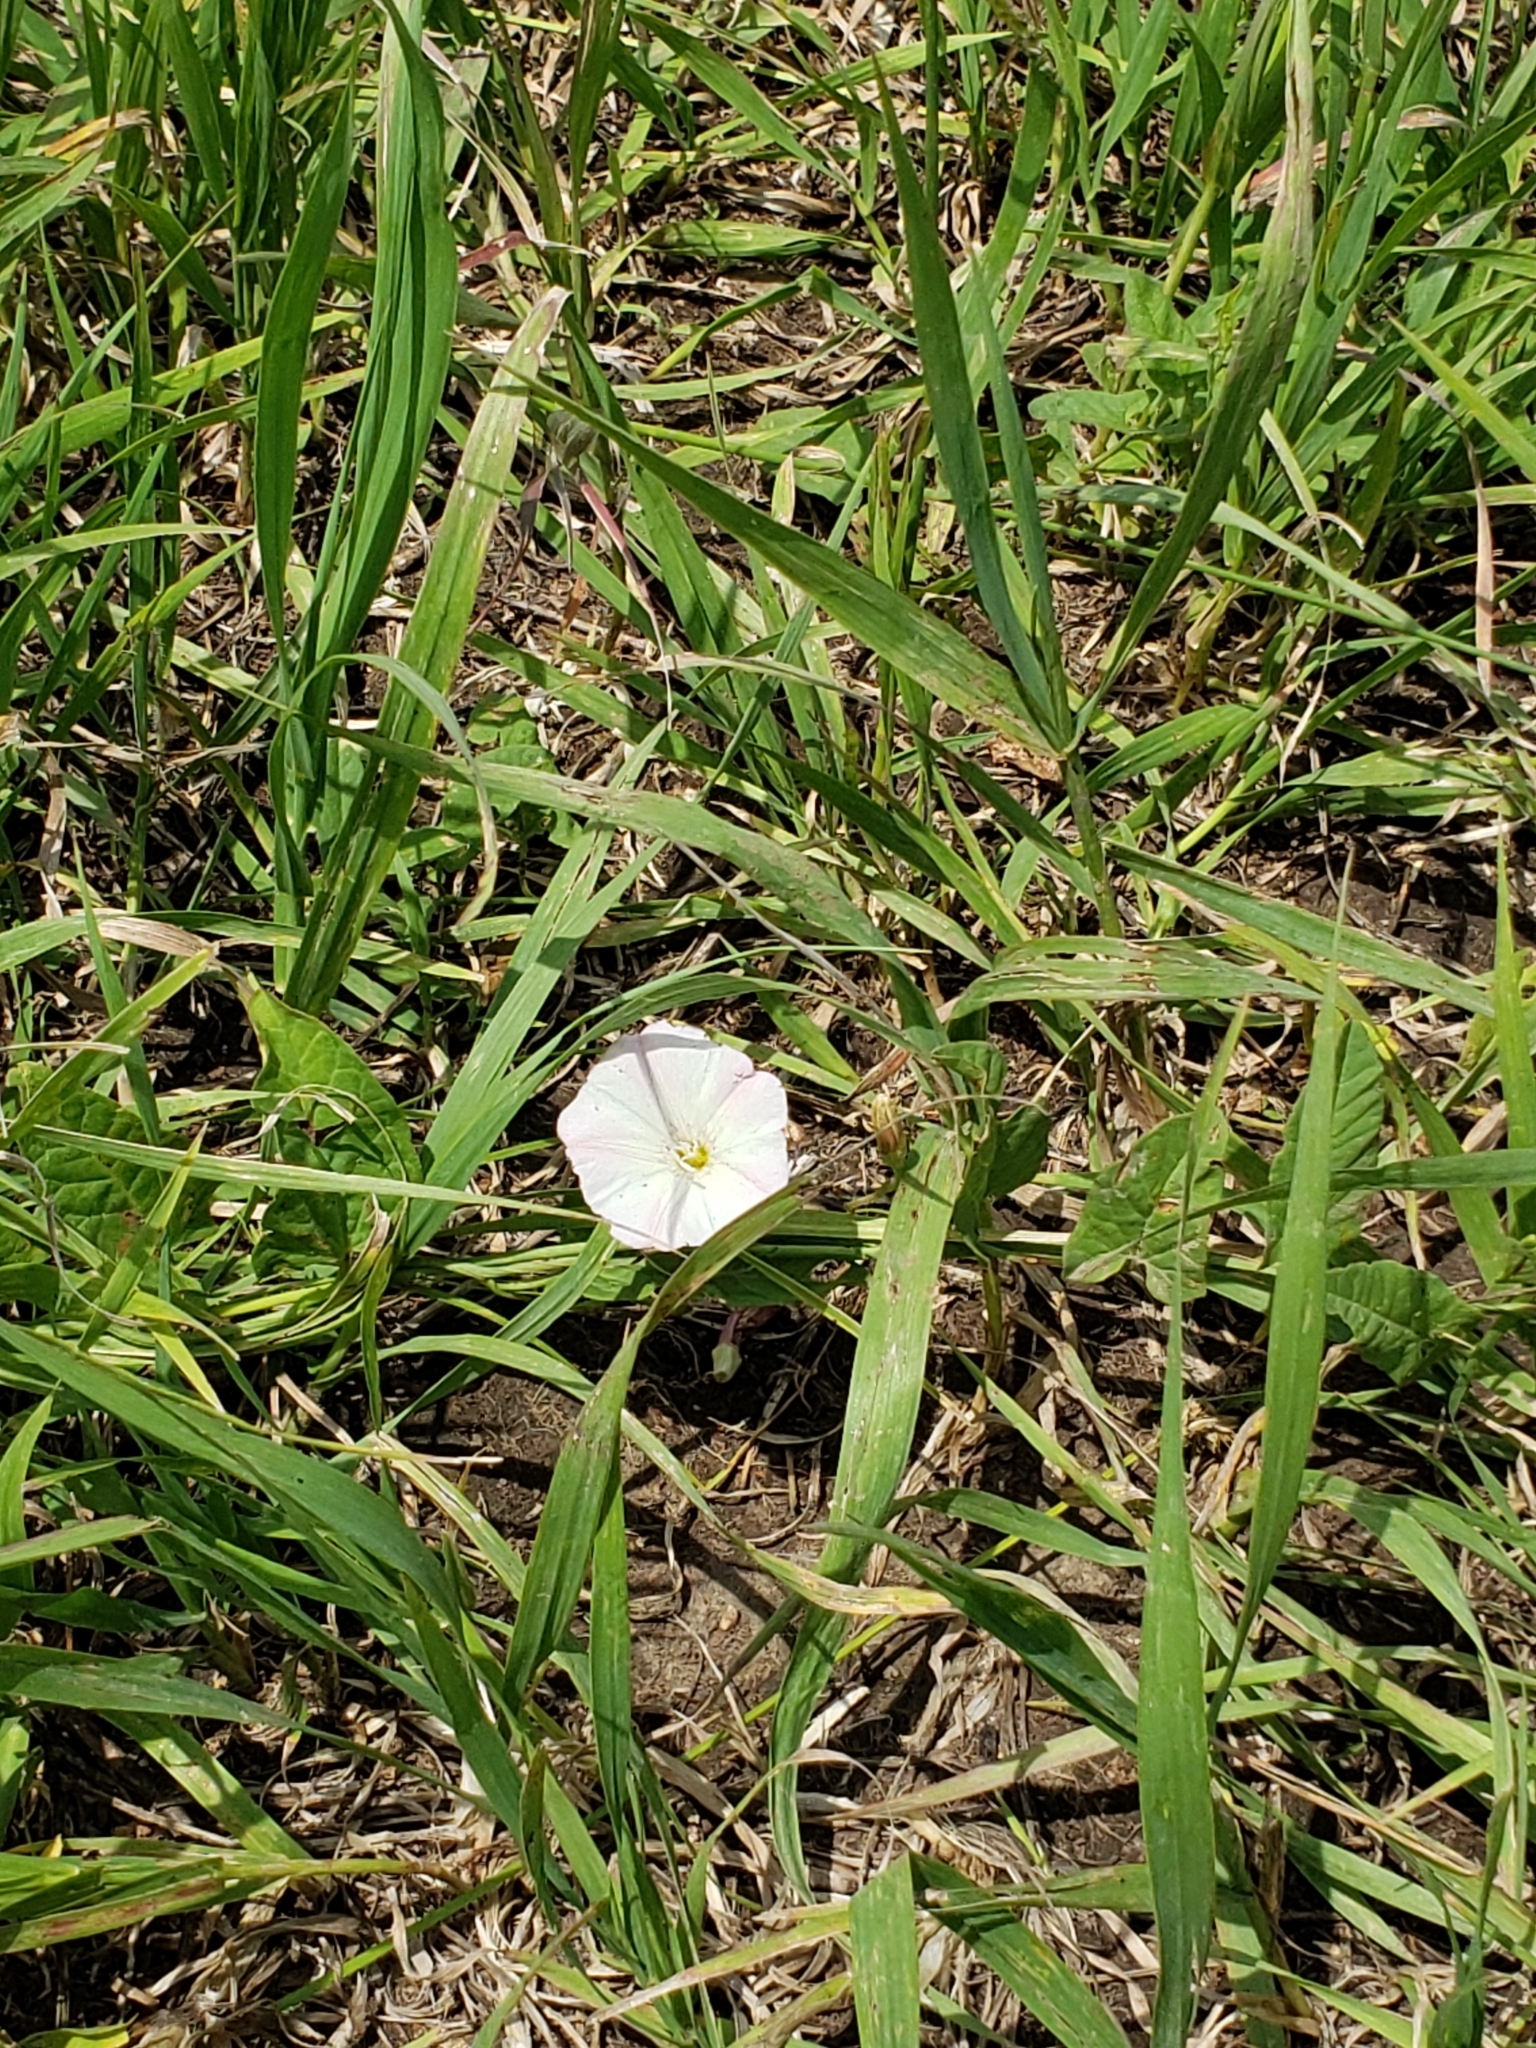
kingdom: Plantae
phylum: Tracheophyta
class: Magnoliopsida
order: Solanales
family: Convolvulaceae
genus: Convolvulus
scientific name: Convolvulus arvensis
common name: Field bindweed
